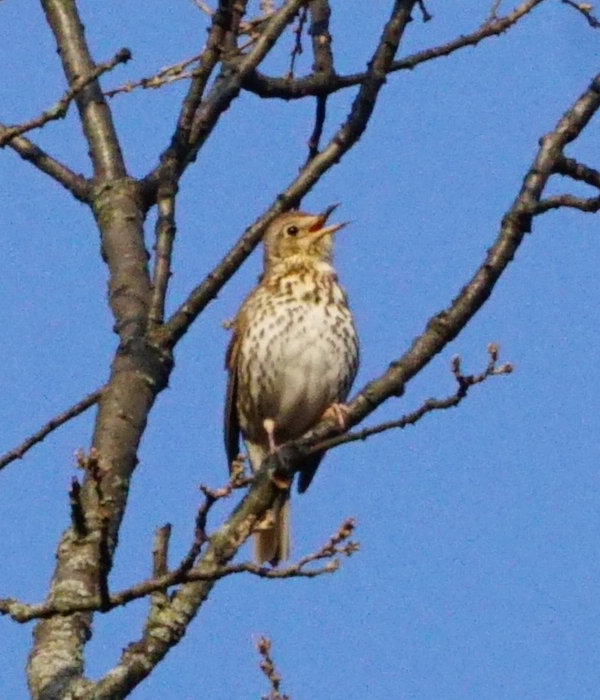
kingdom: Animalia
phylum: Chordata
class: Aves
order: Passeriformes
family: Turdidae
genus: Turdus
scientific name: Turdus philomelos
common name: Song thrush
